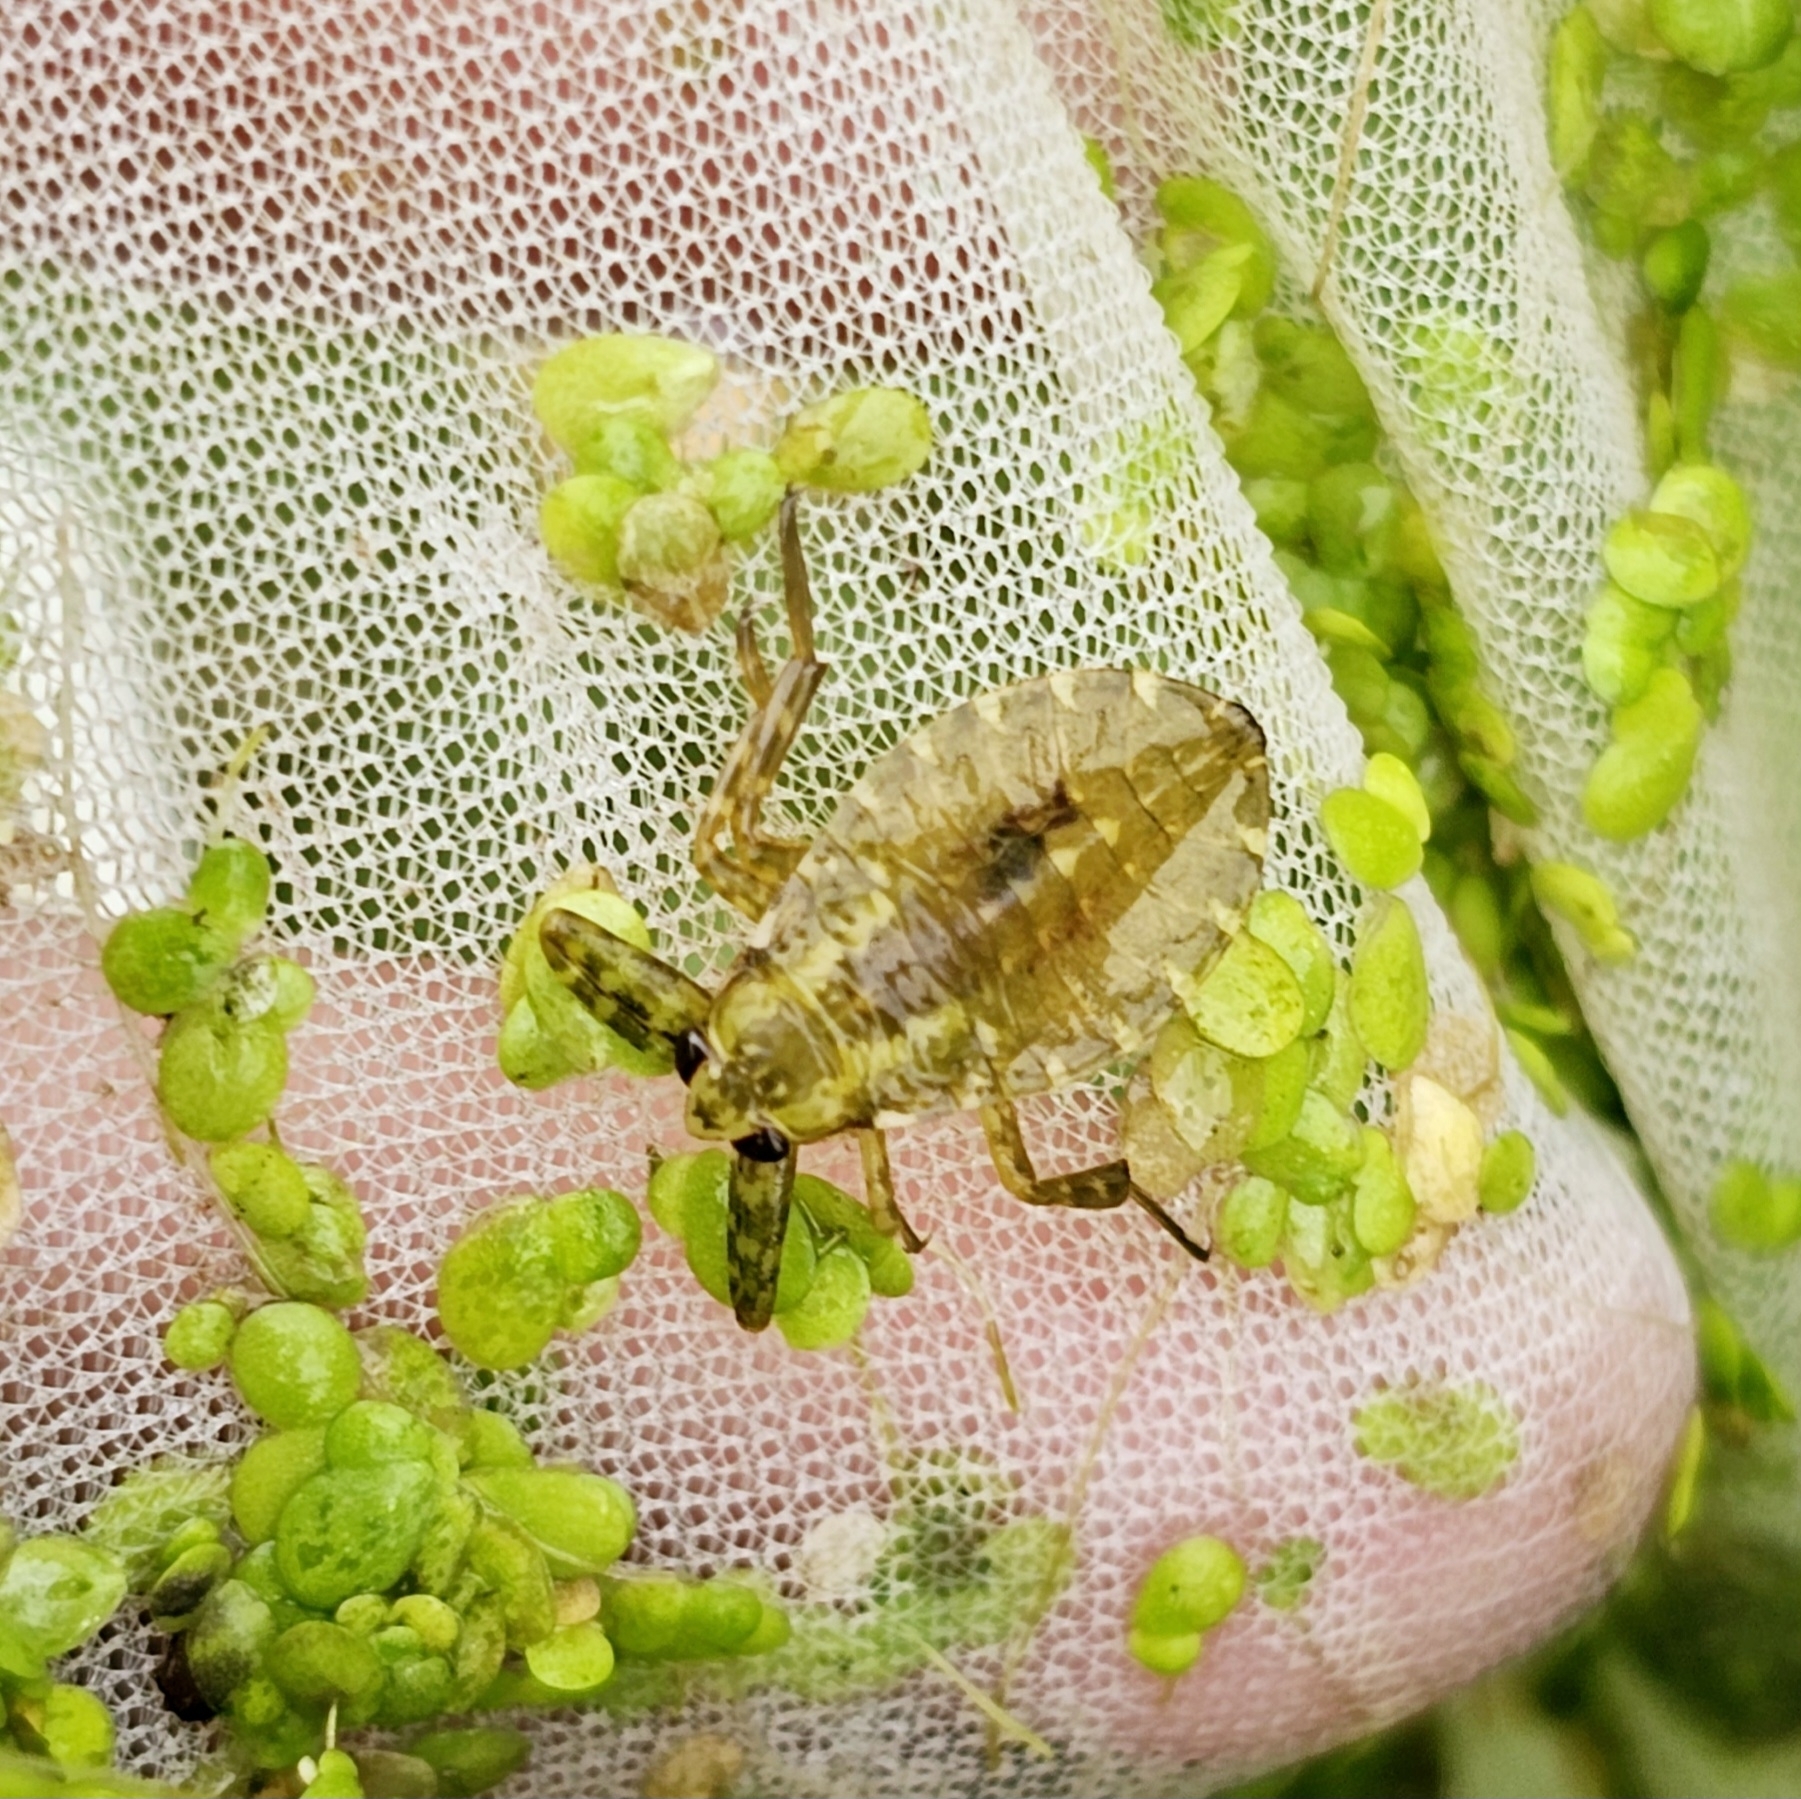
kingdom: Animalia
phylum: Arthropoda
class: Insecta
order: Hemiptera
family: Belostomatidae
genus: Lethocerus
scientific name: Lethocerus americanus
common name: Giant water bug
